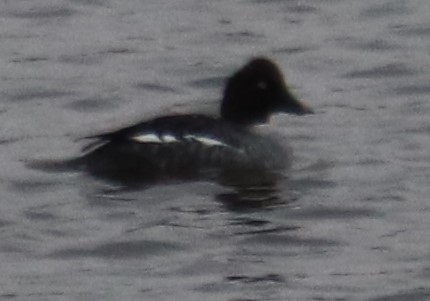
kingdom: Animalia
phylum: Chordata
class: Aves
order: Anseriformes
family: Anatidae
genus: Bucephala
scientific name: Bucephala clangula
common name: Common goldeneye
